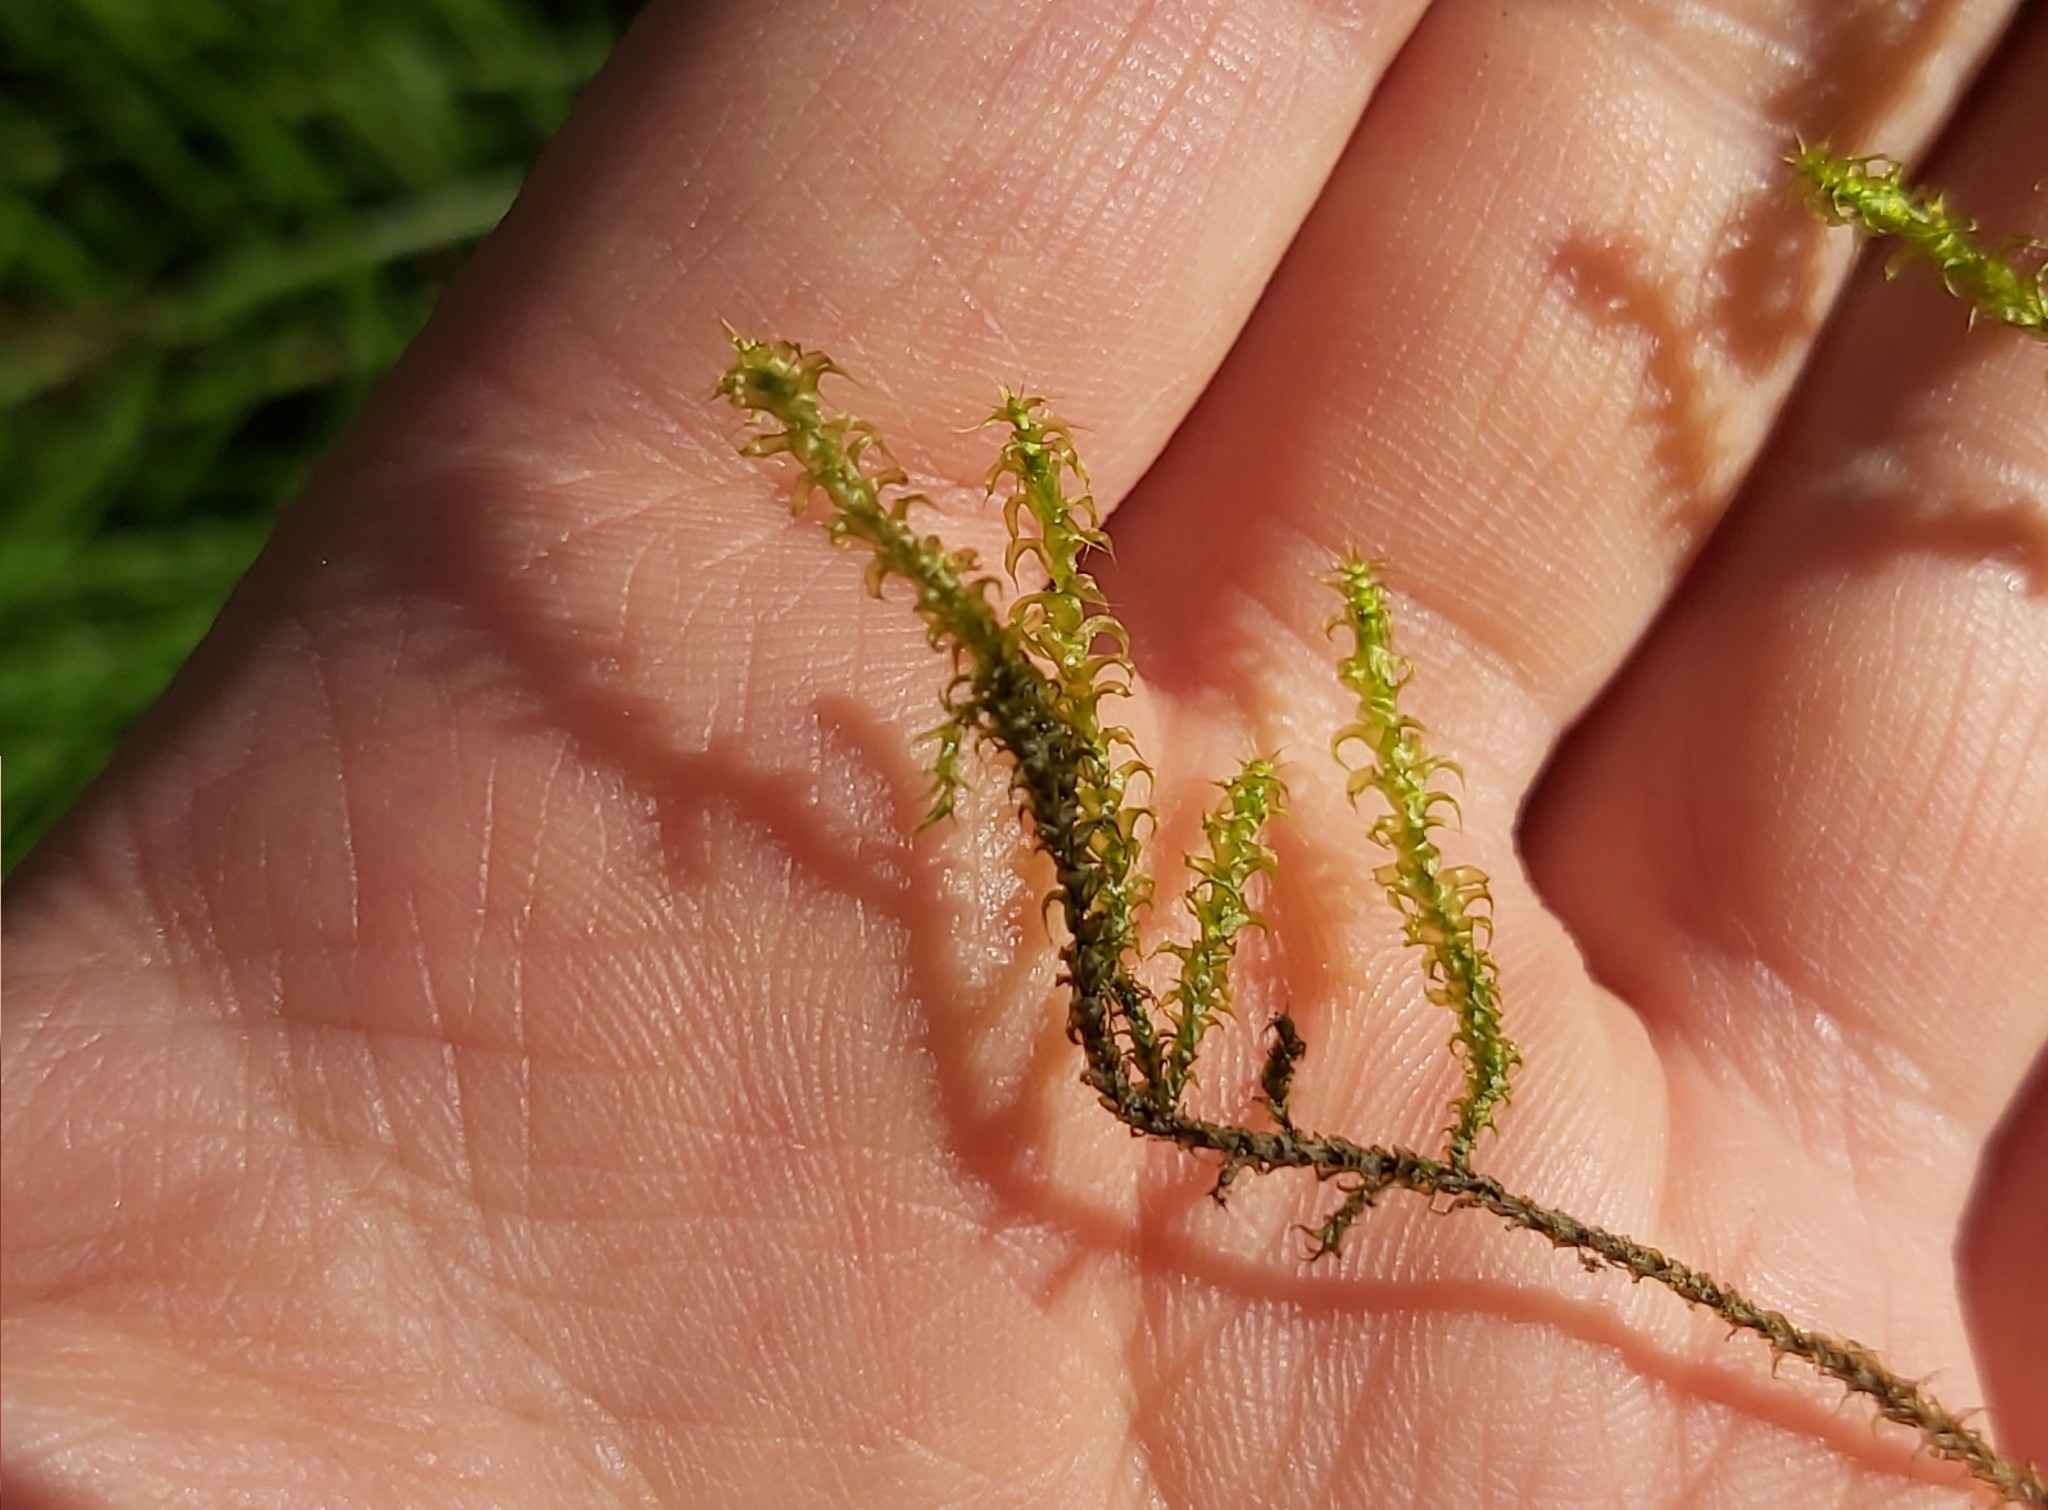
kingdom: Plantae
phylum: Bryophyta
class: Bryopsida
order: Hypnales
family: Hylocomiaceae
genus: Rhytidiadelphus
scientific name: Rhytidiadelphus squarrosus
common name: Springy turf-moss
